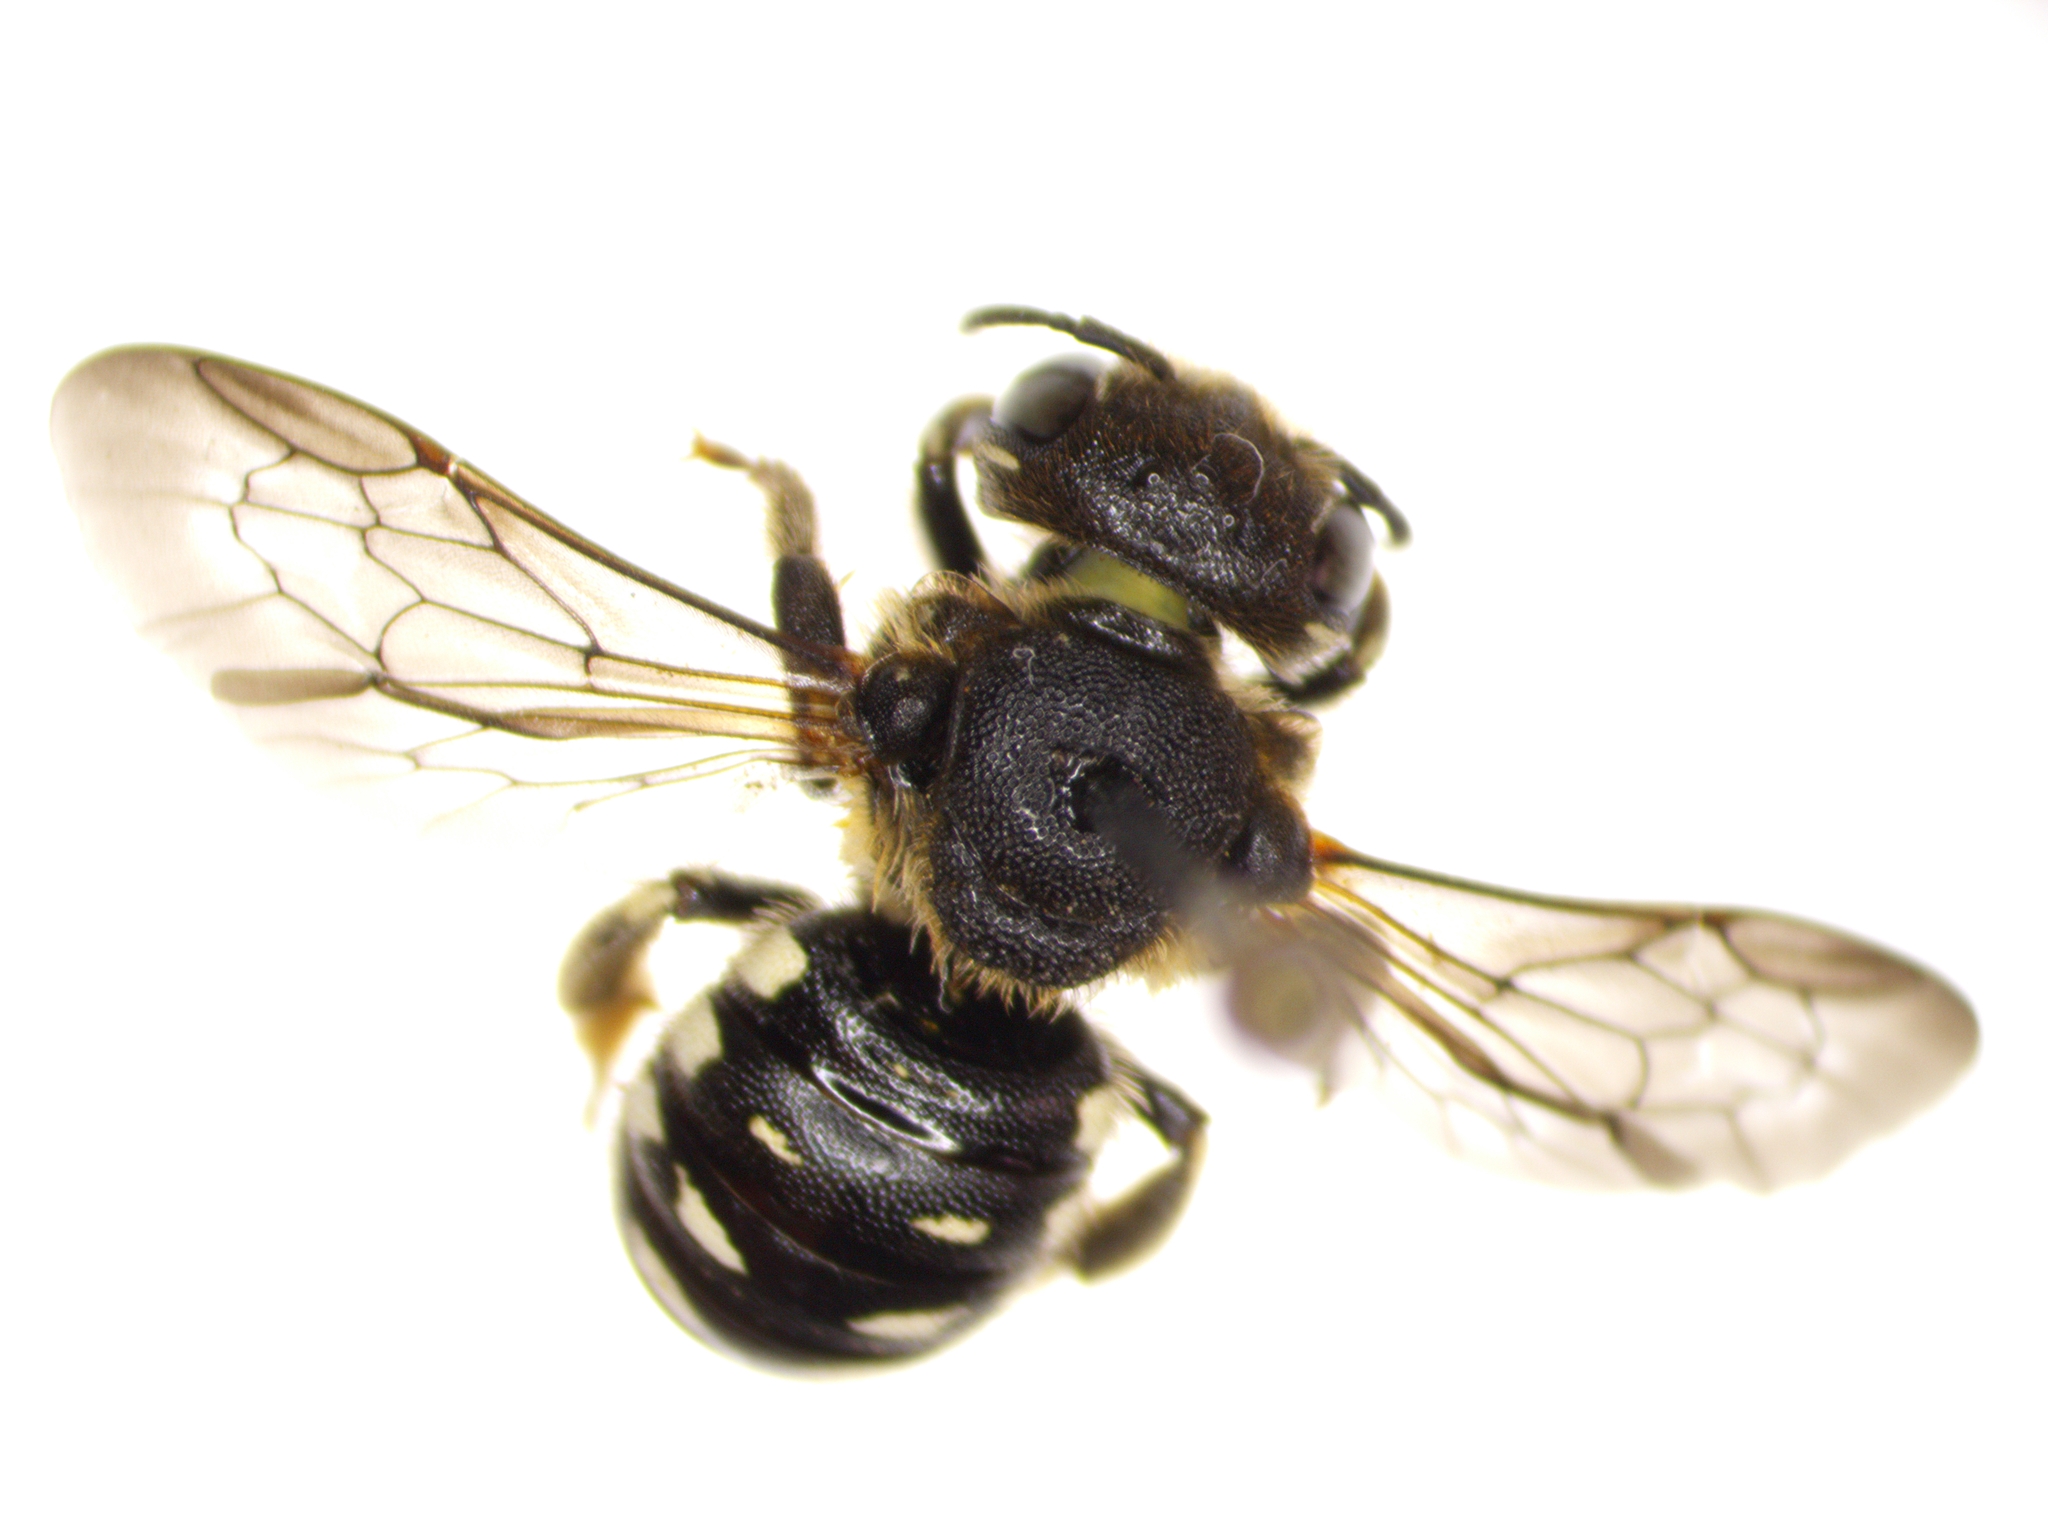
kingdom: Animalia
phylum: Arthropoda
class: Insecta
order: Hymenoptera
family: Megachilidae
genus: Dianthidium
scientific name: Dianthidium subparvum
